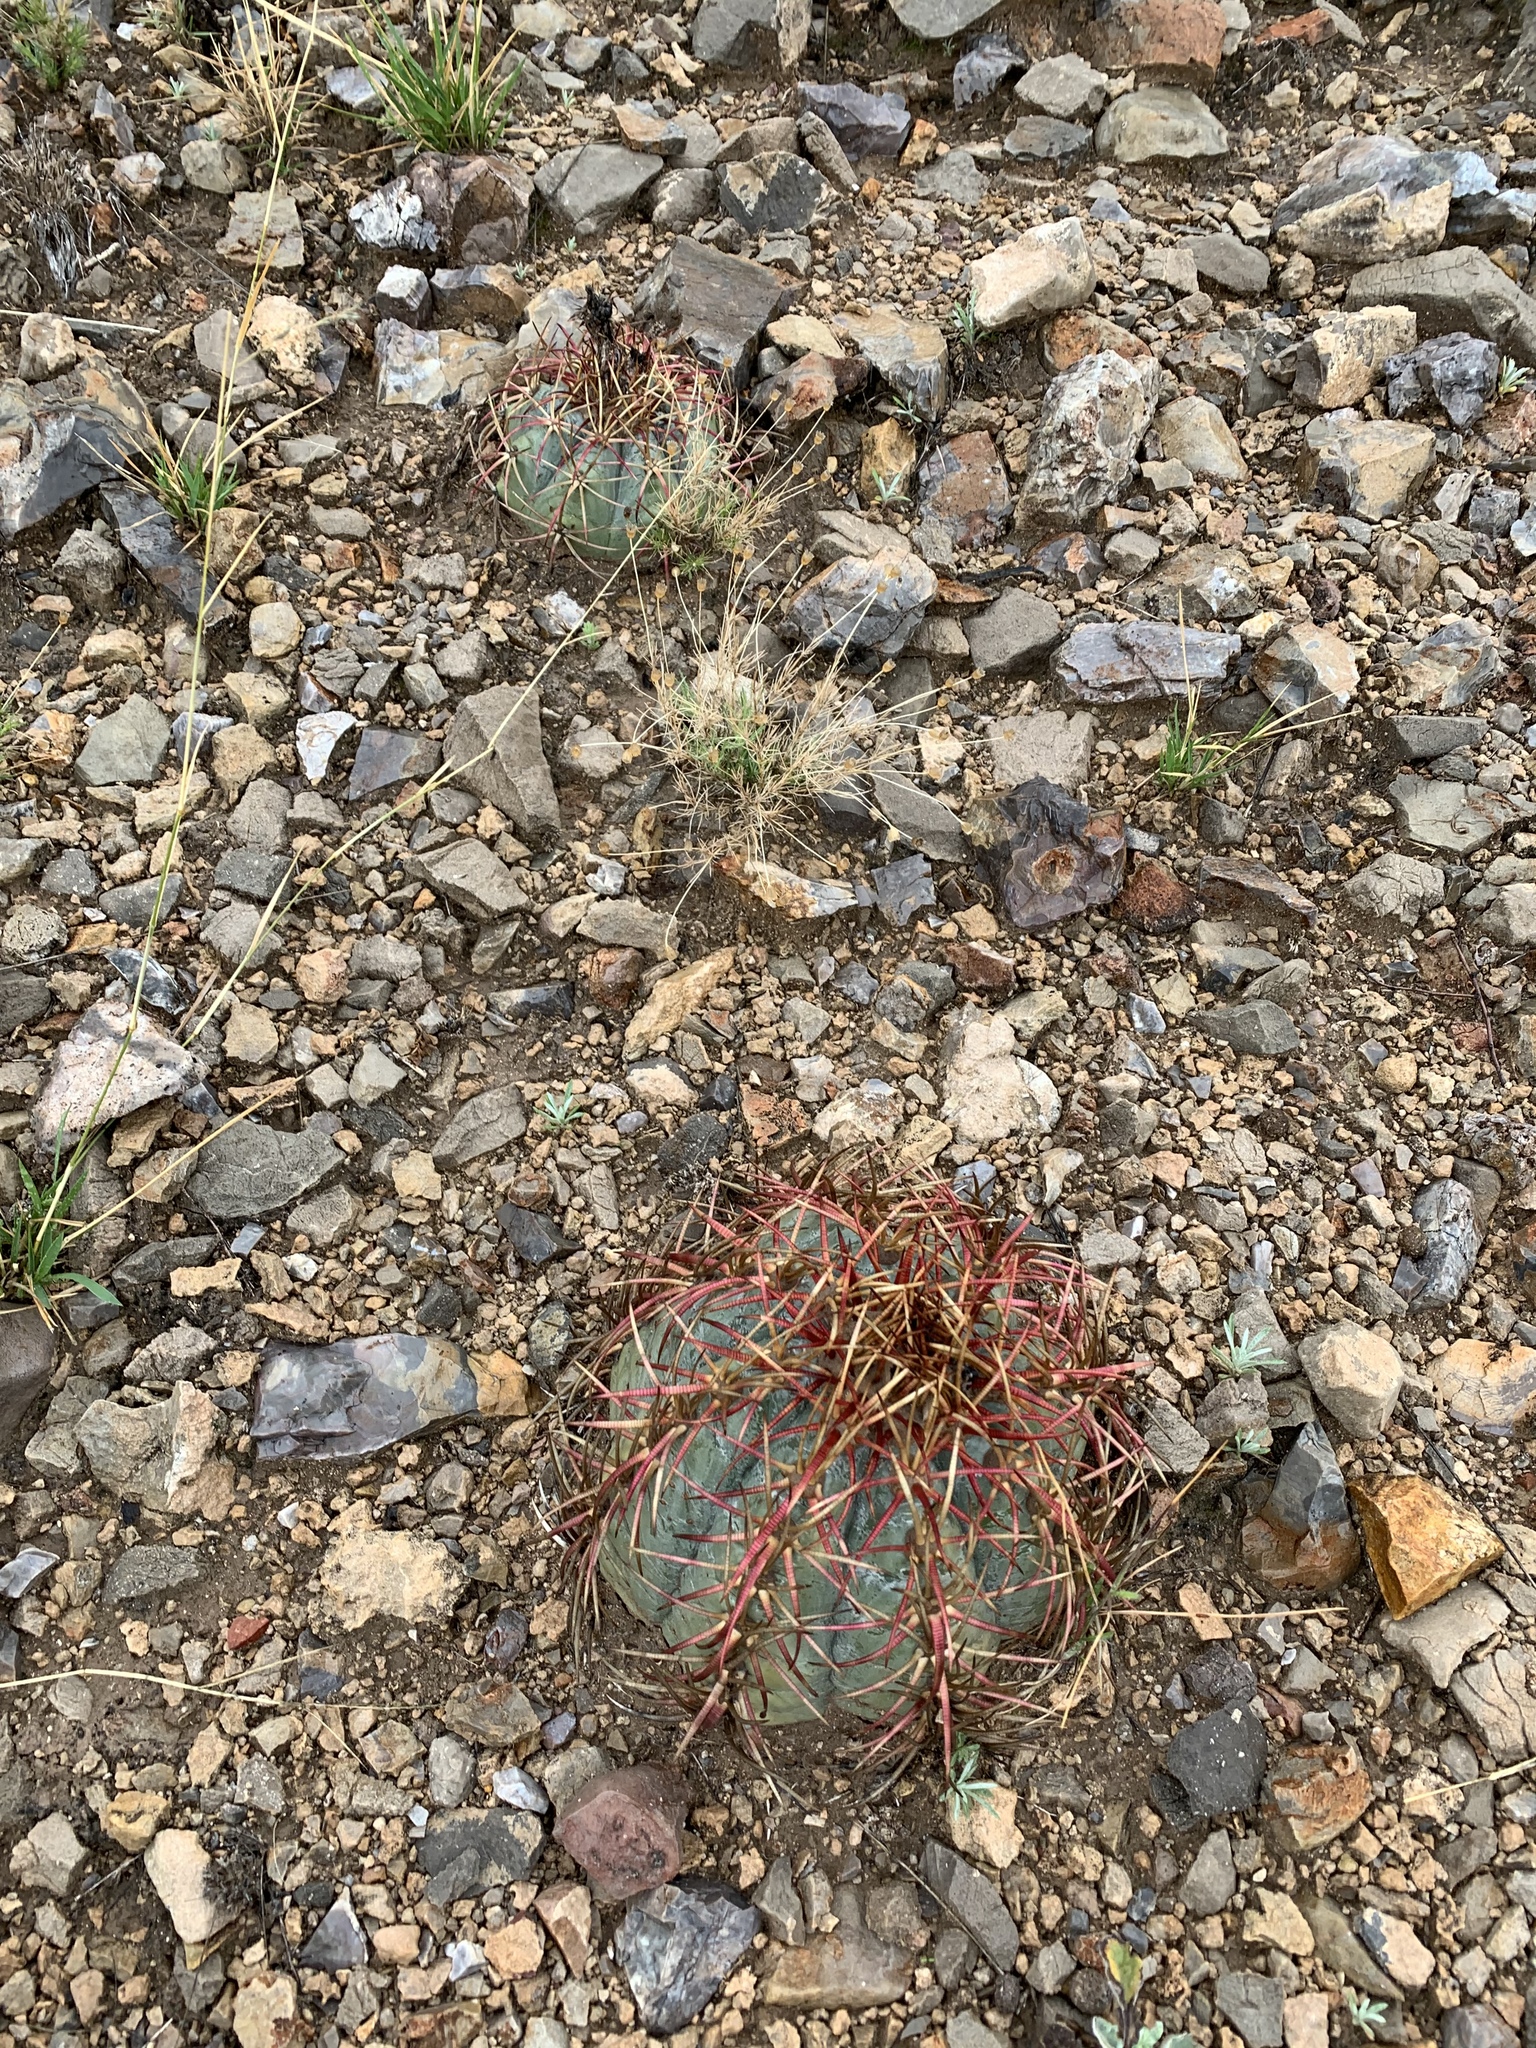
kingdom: Plantae
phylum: Tracheophyta
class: Magnoliopsida
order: Caryophyllales
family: Cactaceae
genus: Echinocactus
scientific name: Echinocactus horizonthalonius
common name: Devilshead
